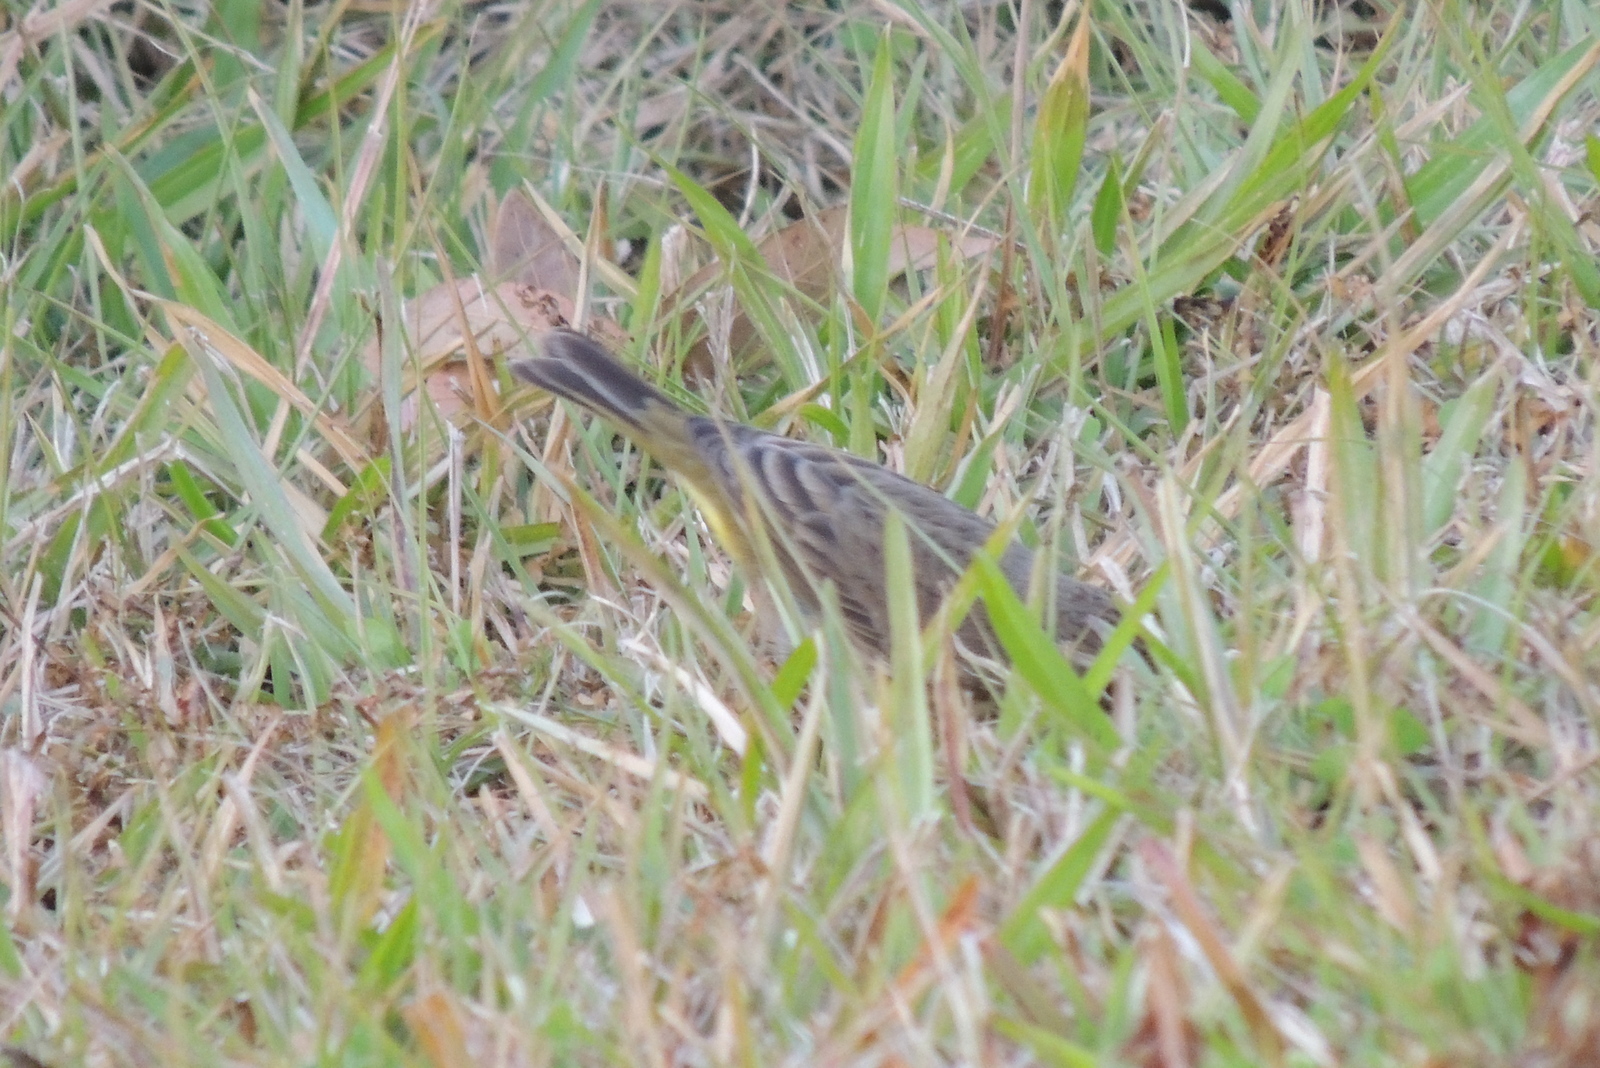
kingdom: Animalia
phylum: Chordata
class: Aves
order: Passeriformes
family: Parulidae
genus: Setophaga
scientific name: Setophaga palmarum
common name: Palm warbler
